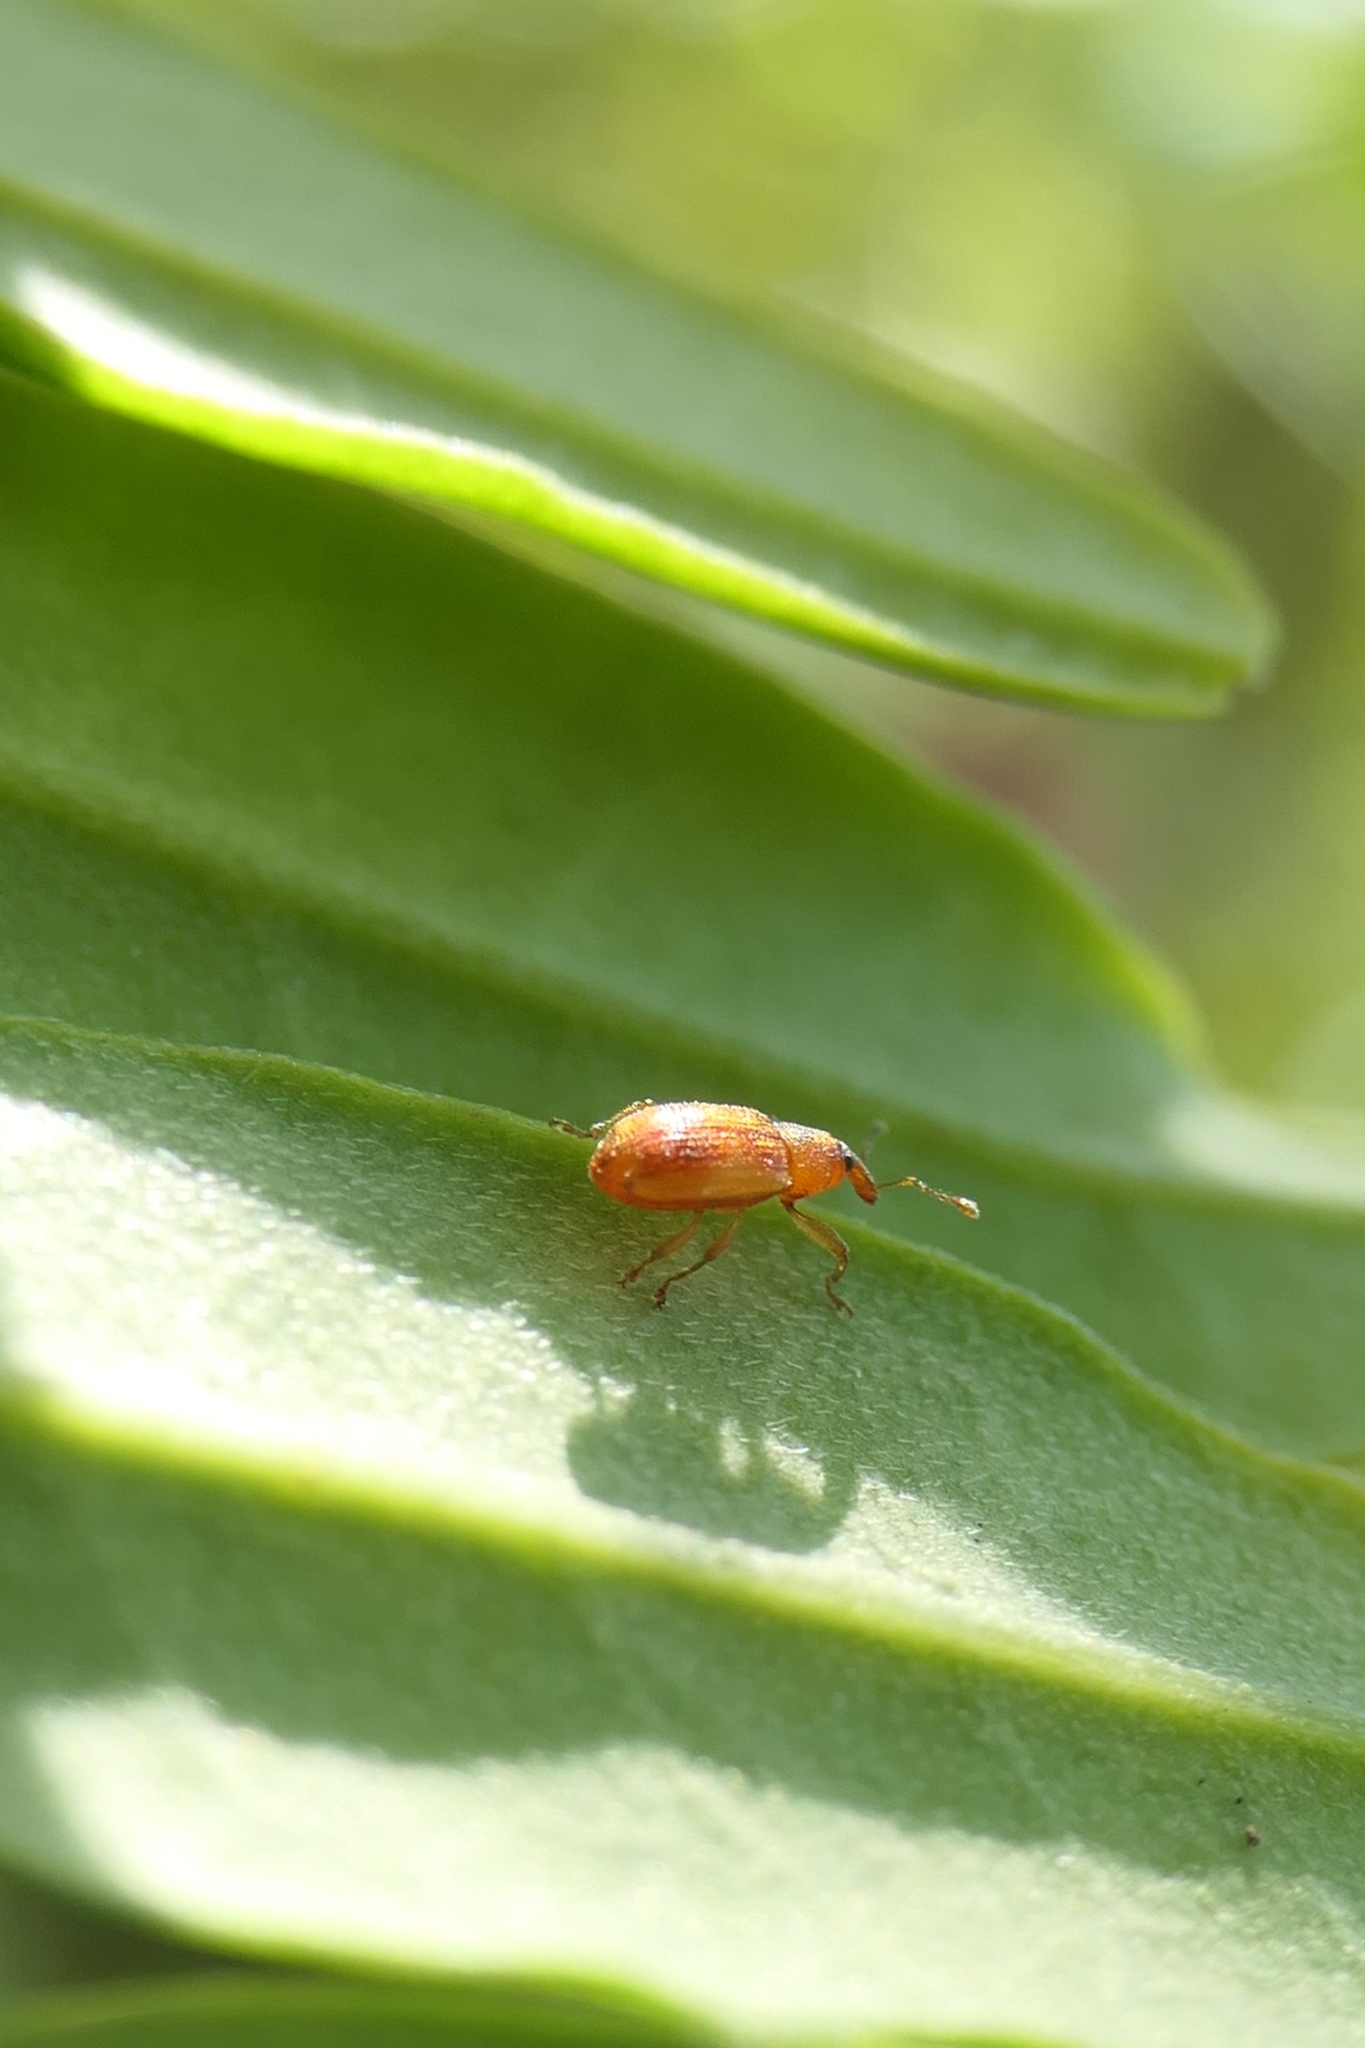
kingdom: Animalia
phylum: Arthropoda
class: Insecta
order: Coleoptera
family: Curculionidae
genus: Neomycta
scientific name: Neomycta pulicaris
